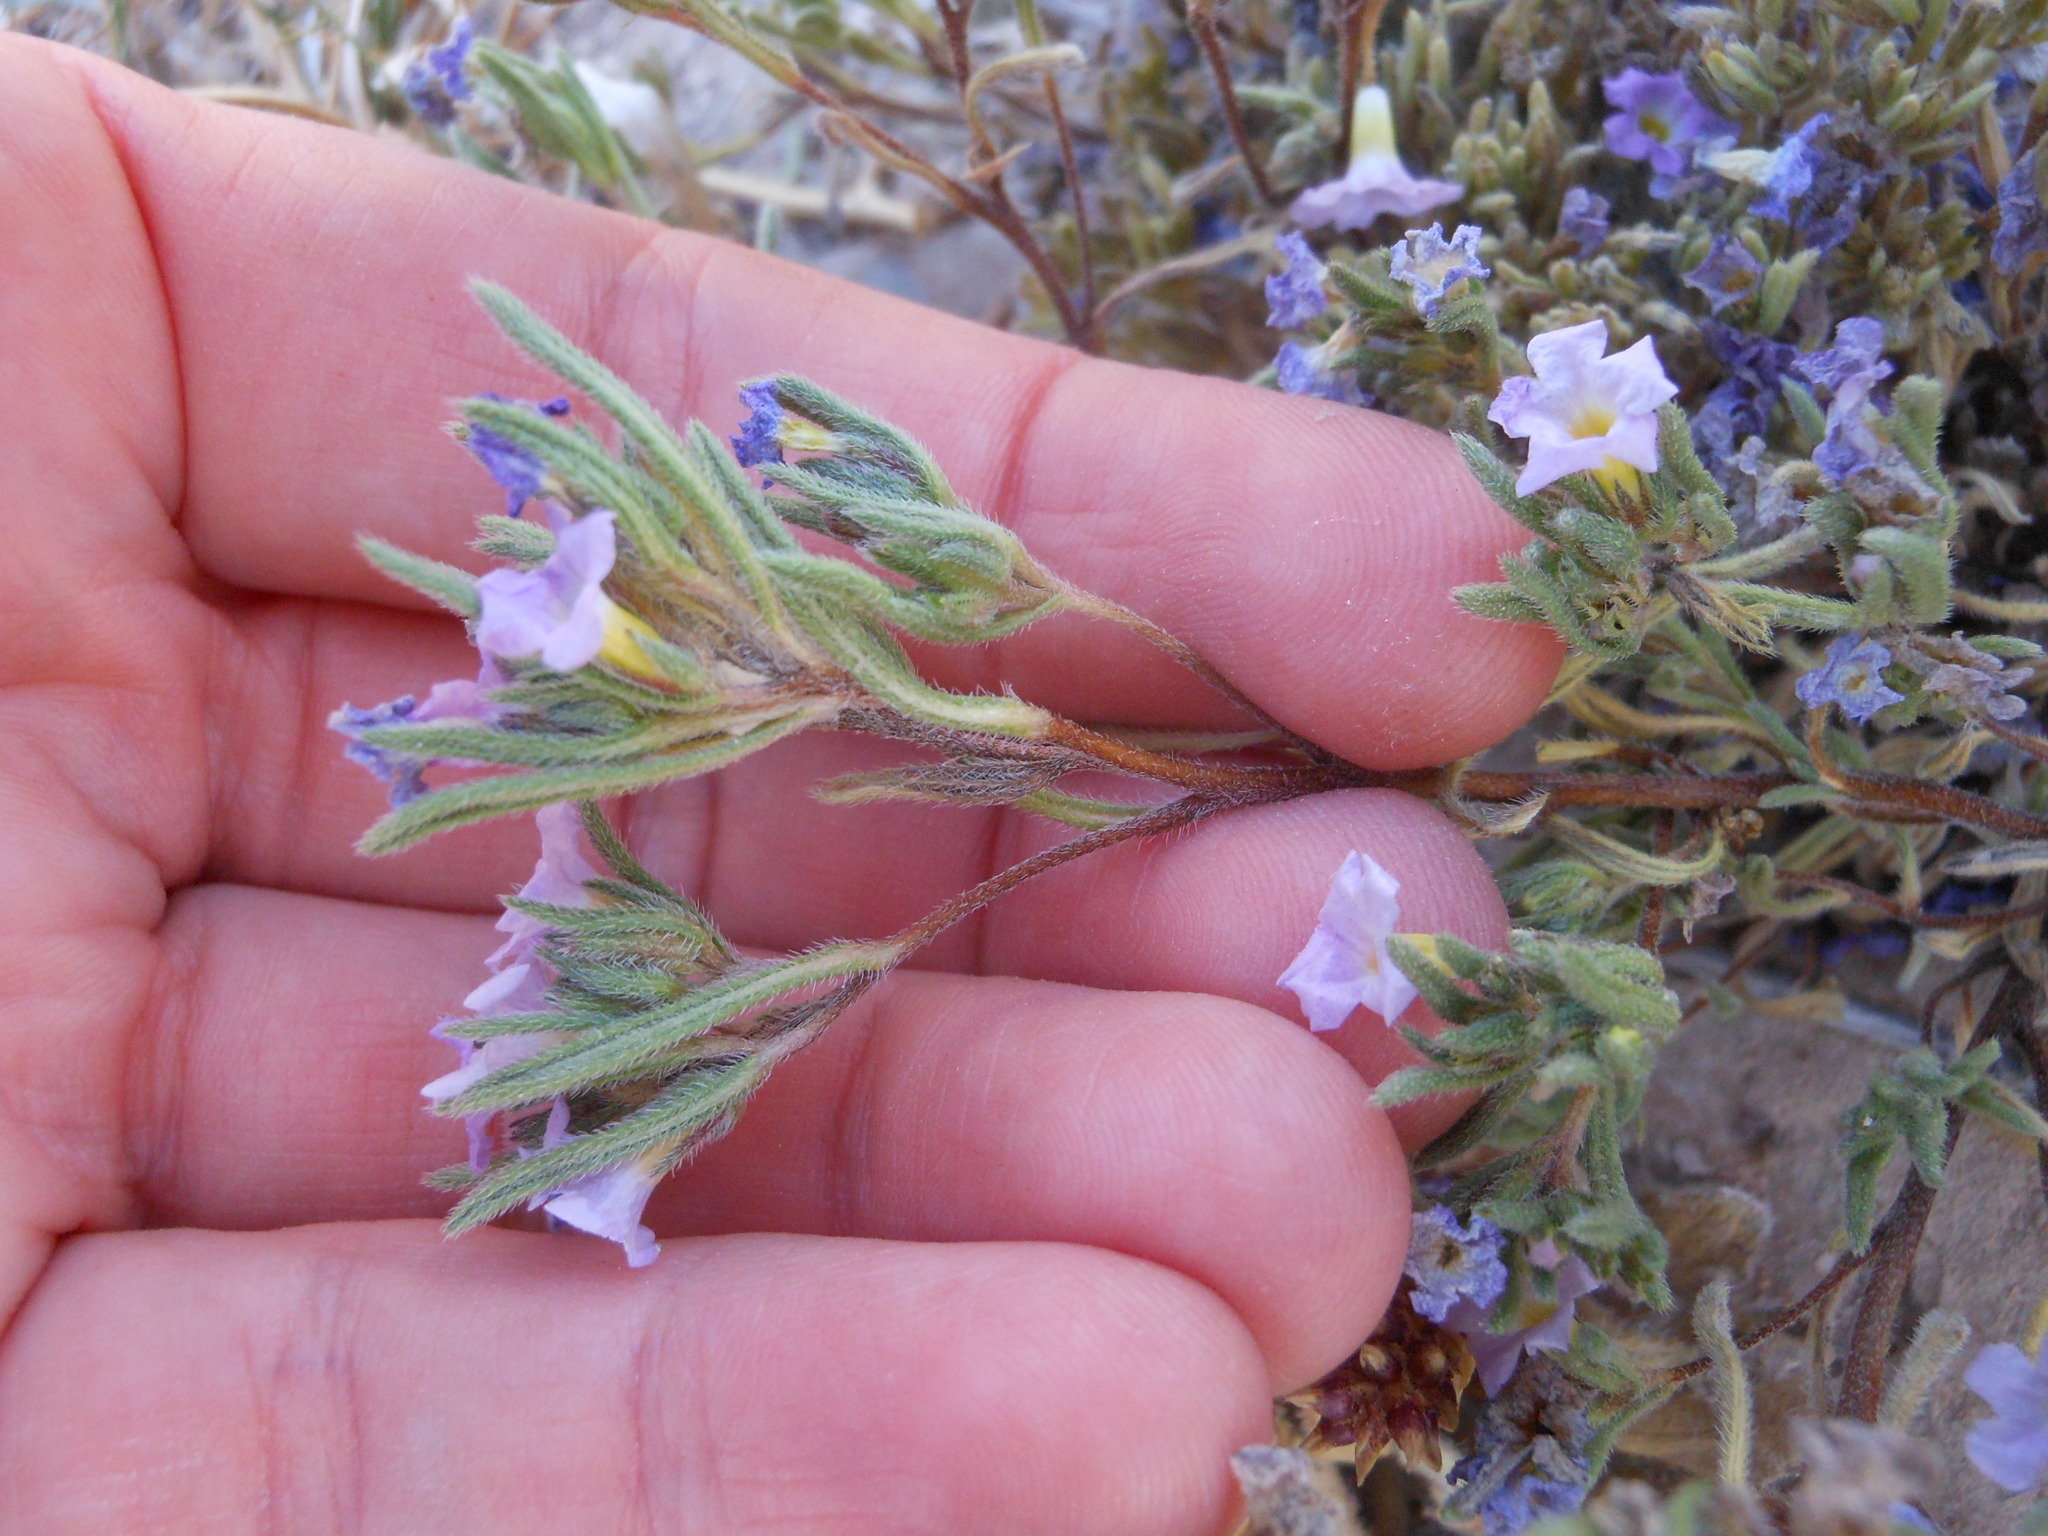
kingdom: Plantae
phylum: Tracheophyta
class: Magnoliopsida
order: Boraginales
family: Namaceae
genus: Nama
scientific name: Nama hispida
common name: Bristly nama
